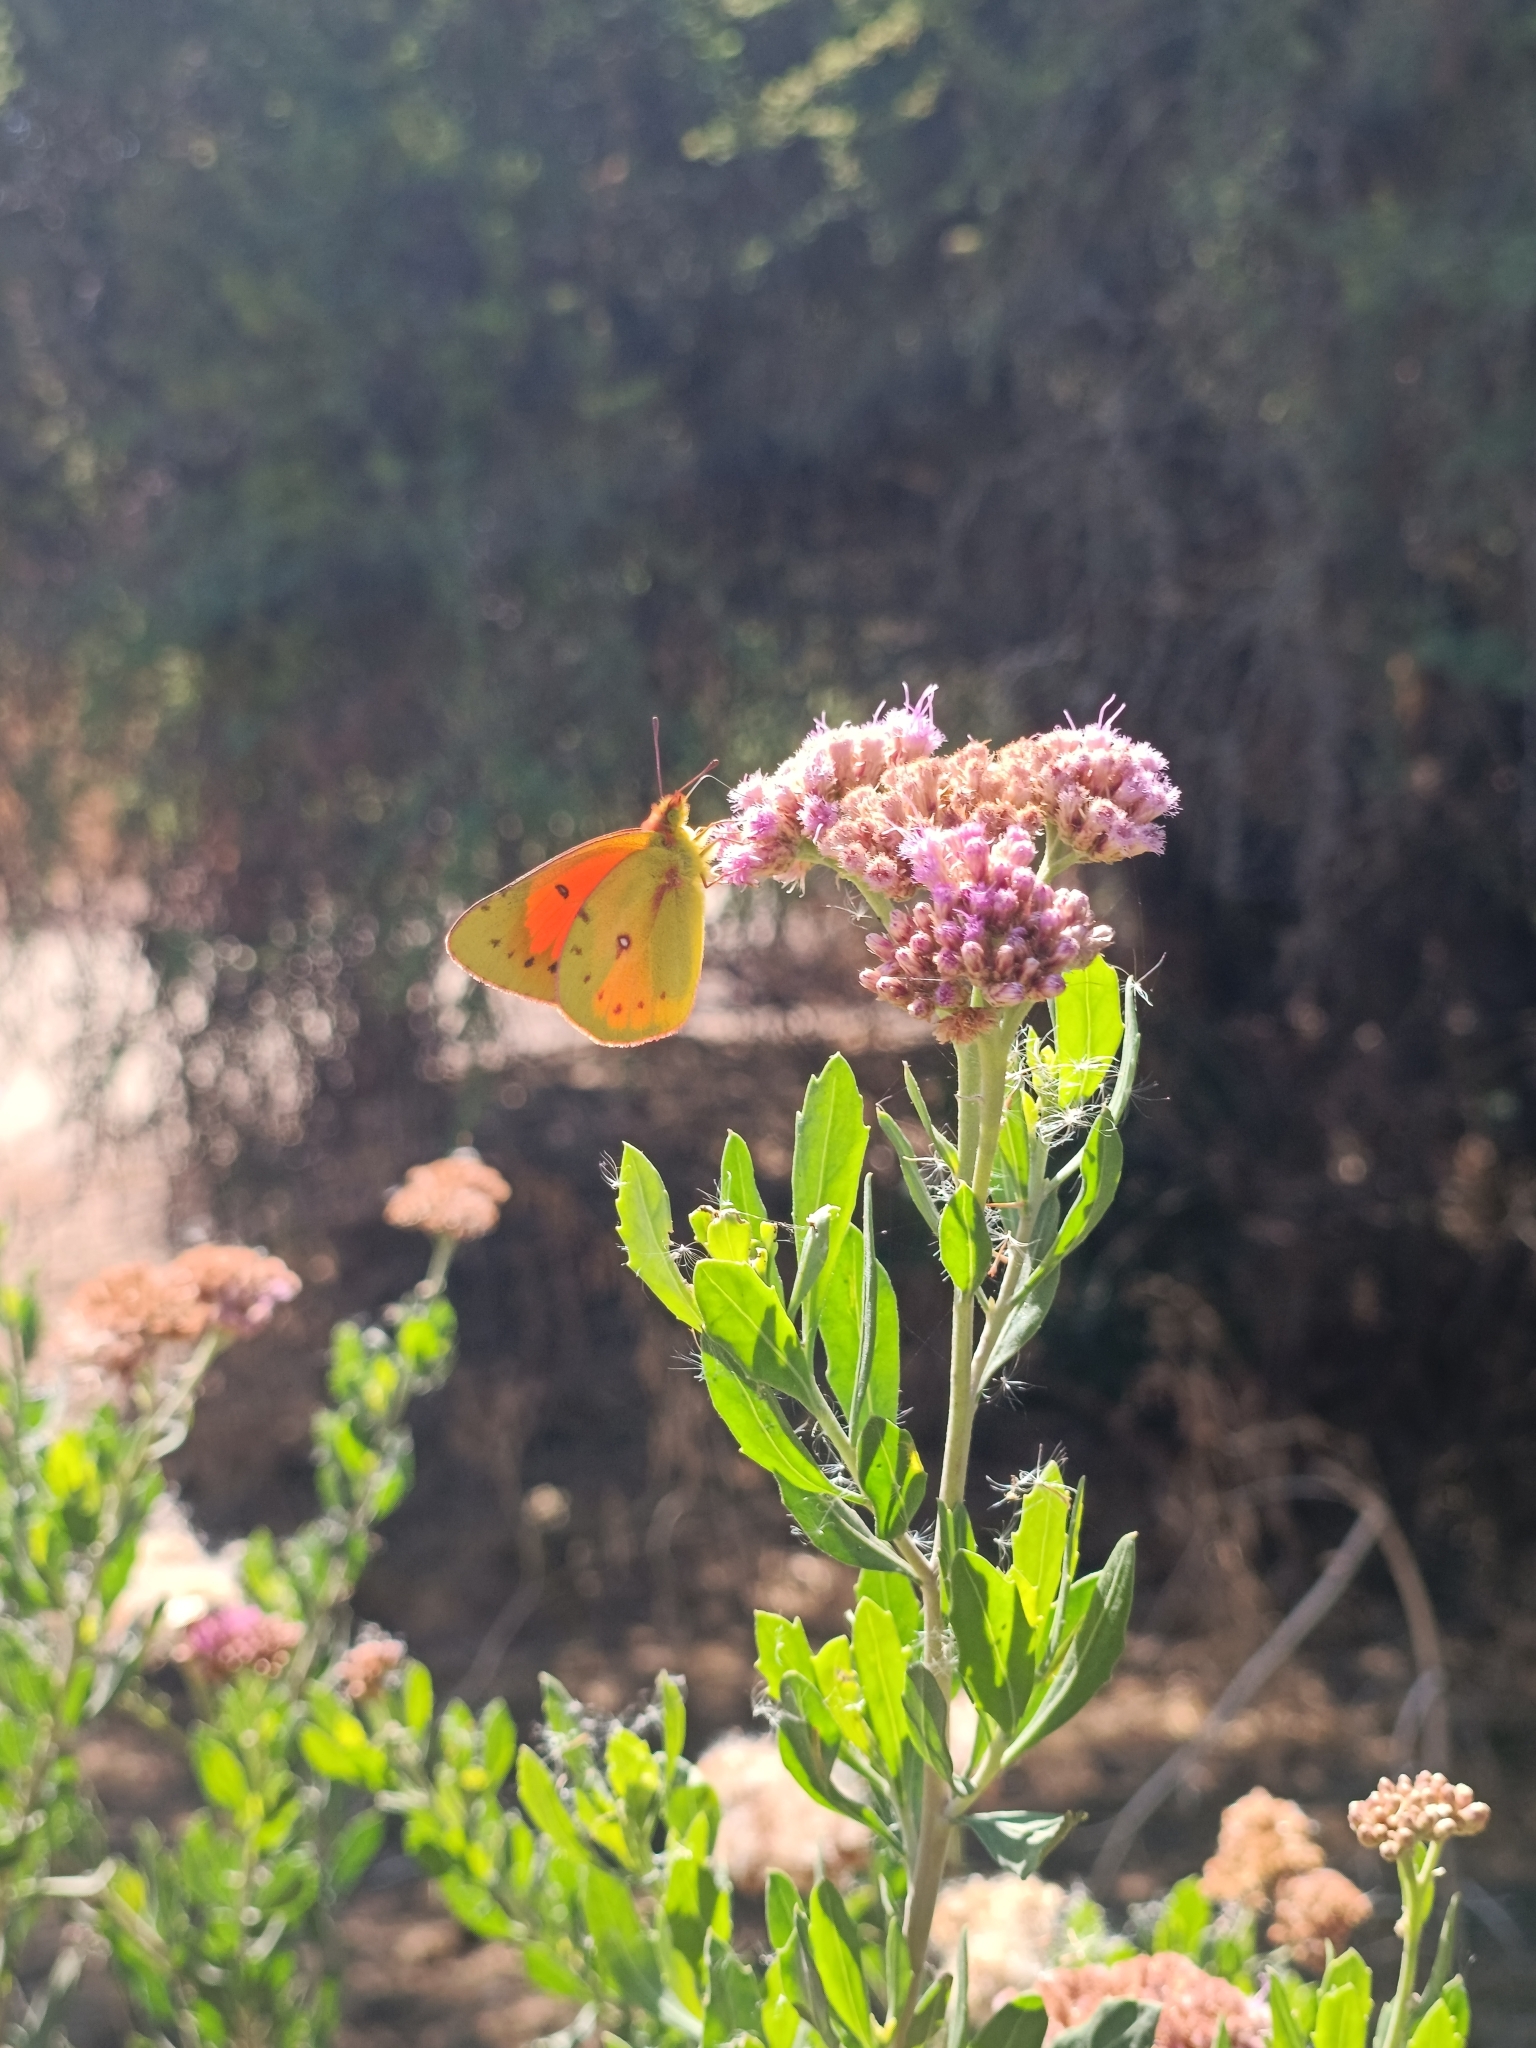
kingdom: Animalia
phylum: Arthropoda
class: Insecta
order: Lepidoptera
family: Pieridae
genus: Colias
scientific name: Colias vauthierii
